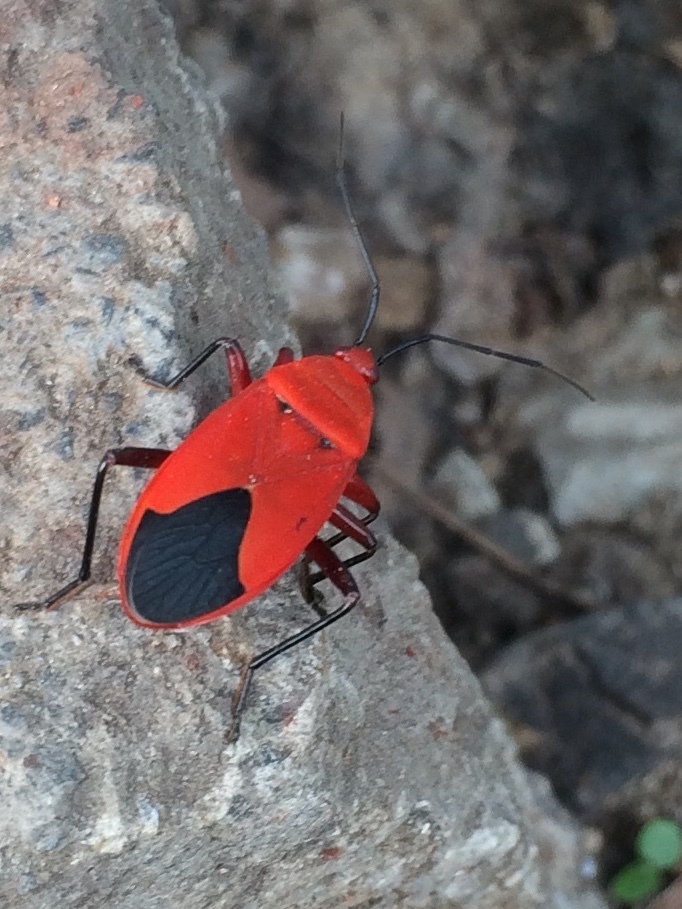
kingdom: Animalia
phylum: Arthropoda
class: Insecta
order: Hemiptera
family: Pyrrhocoridae
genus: Antilochus
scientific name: Antilochus coquebertii
